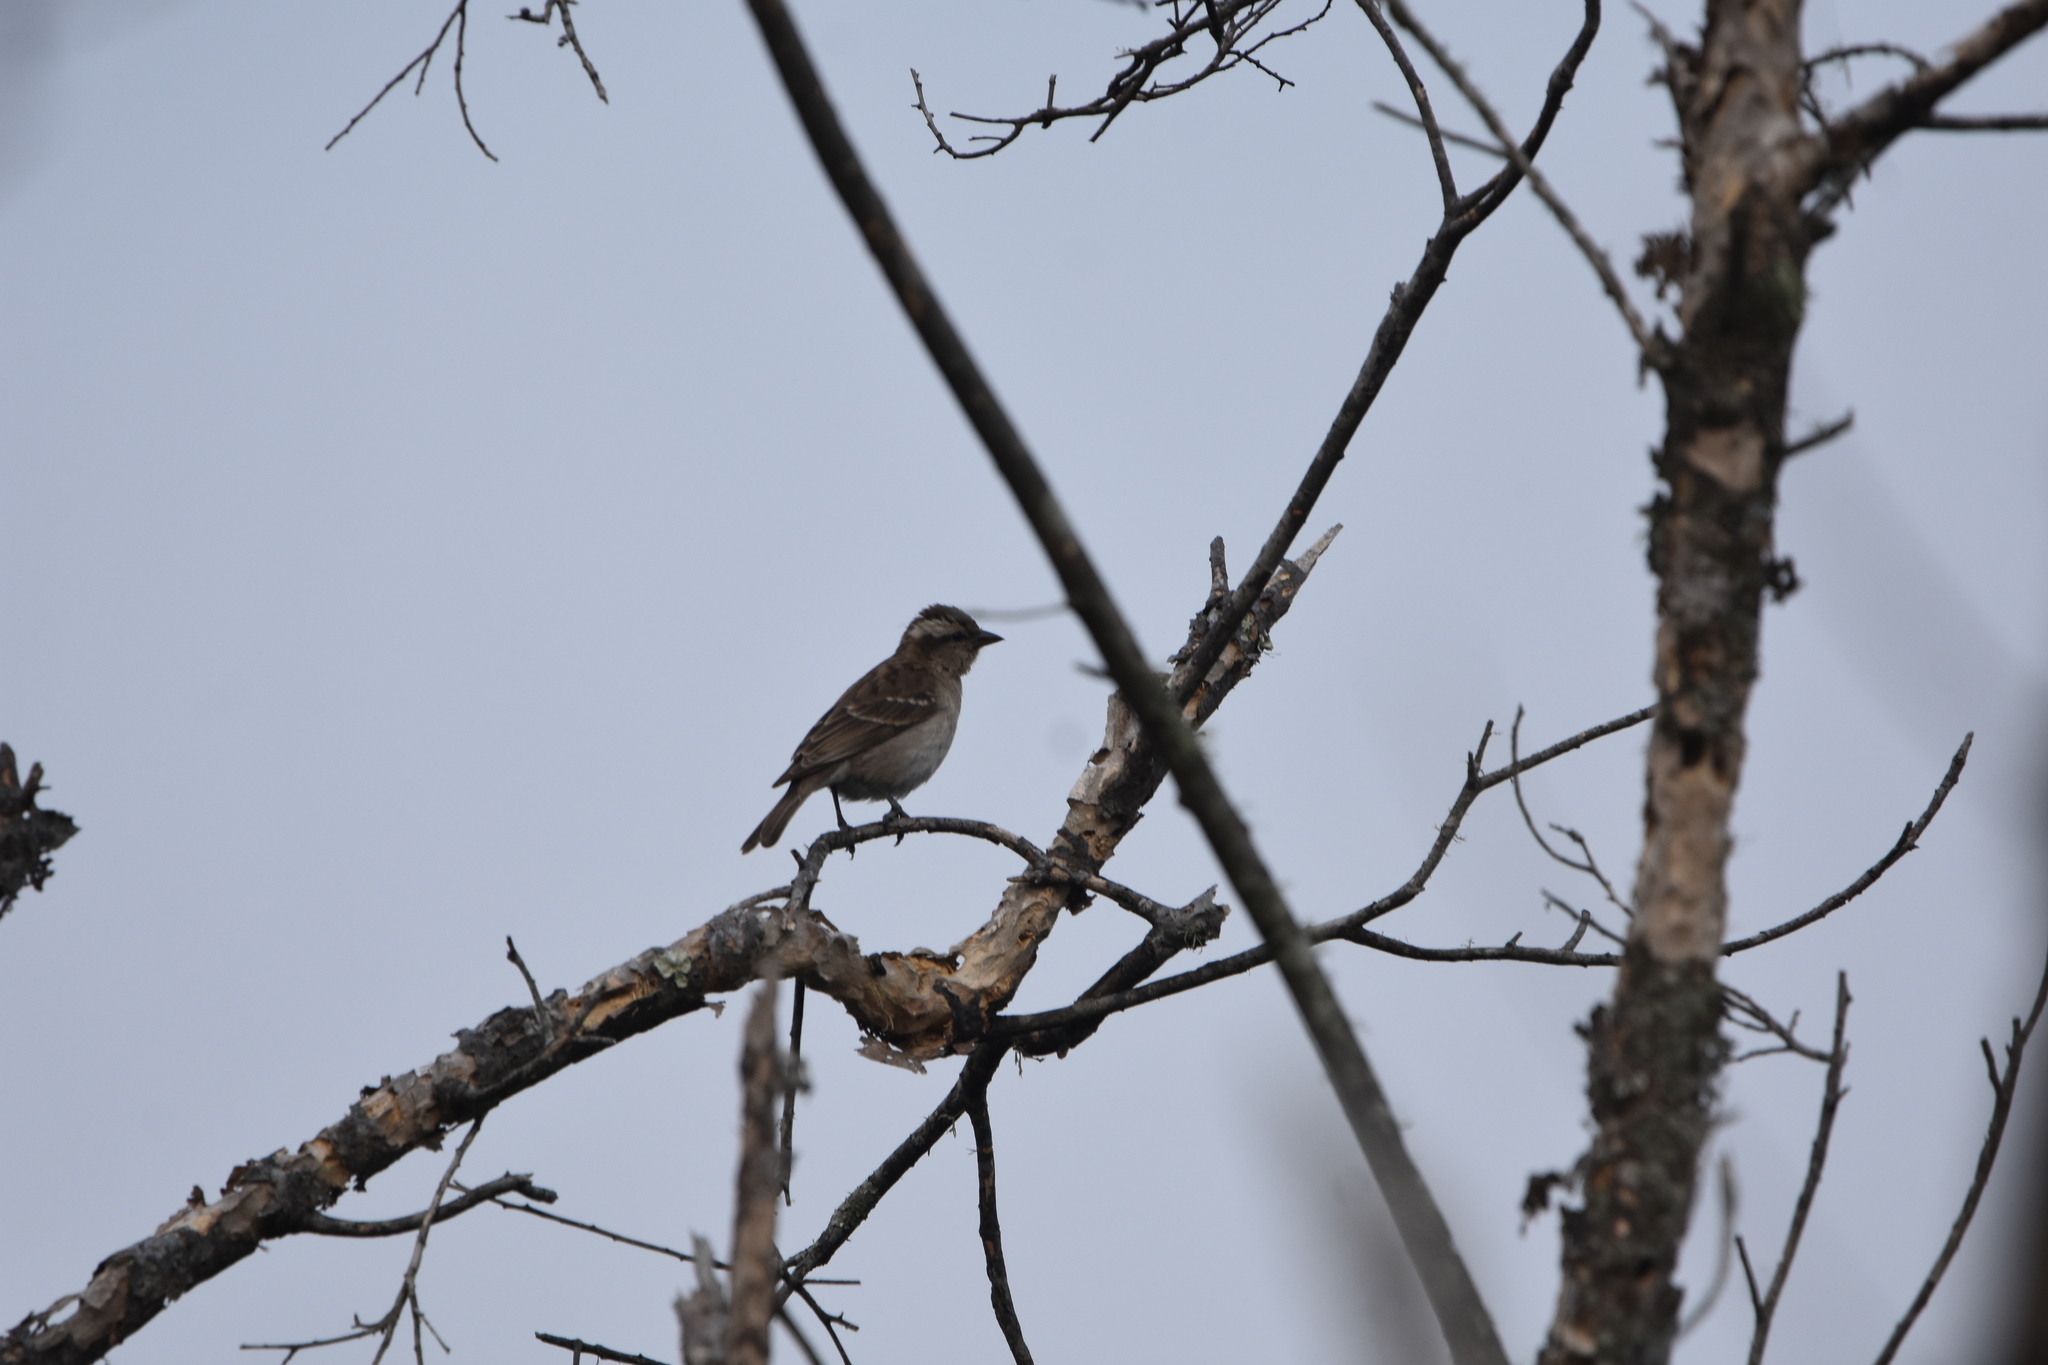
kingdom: Animalia
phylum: Chordata
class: Aves
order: Passeriformes
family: Passeridae
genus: Gymnoris
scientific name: Gymnoris superciliaris
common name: Yellow-throated petronia
